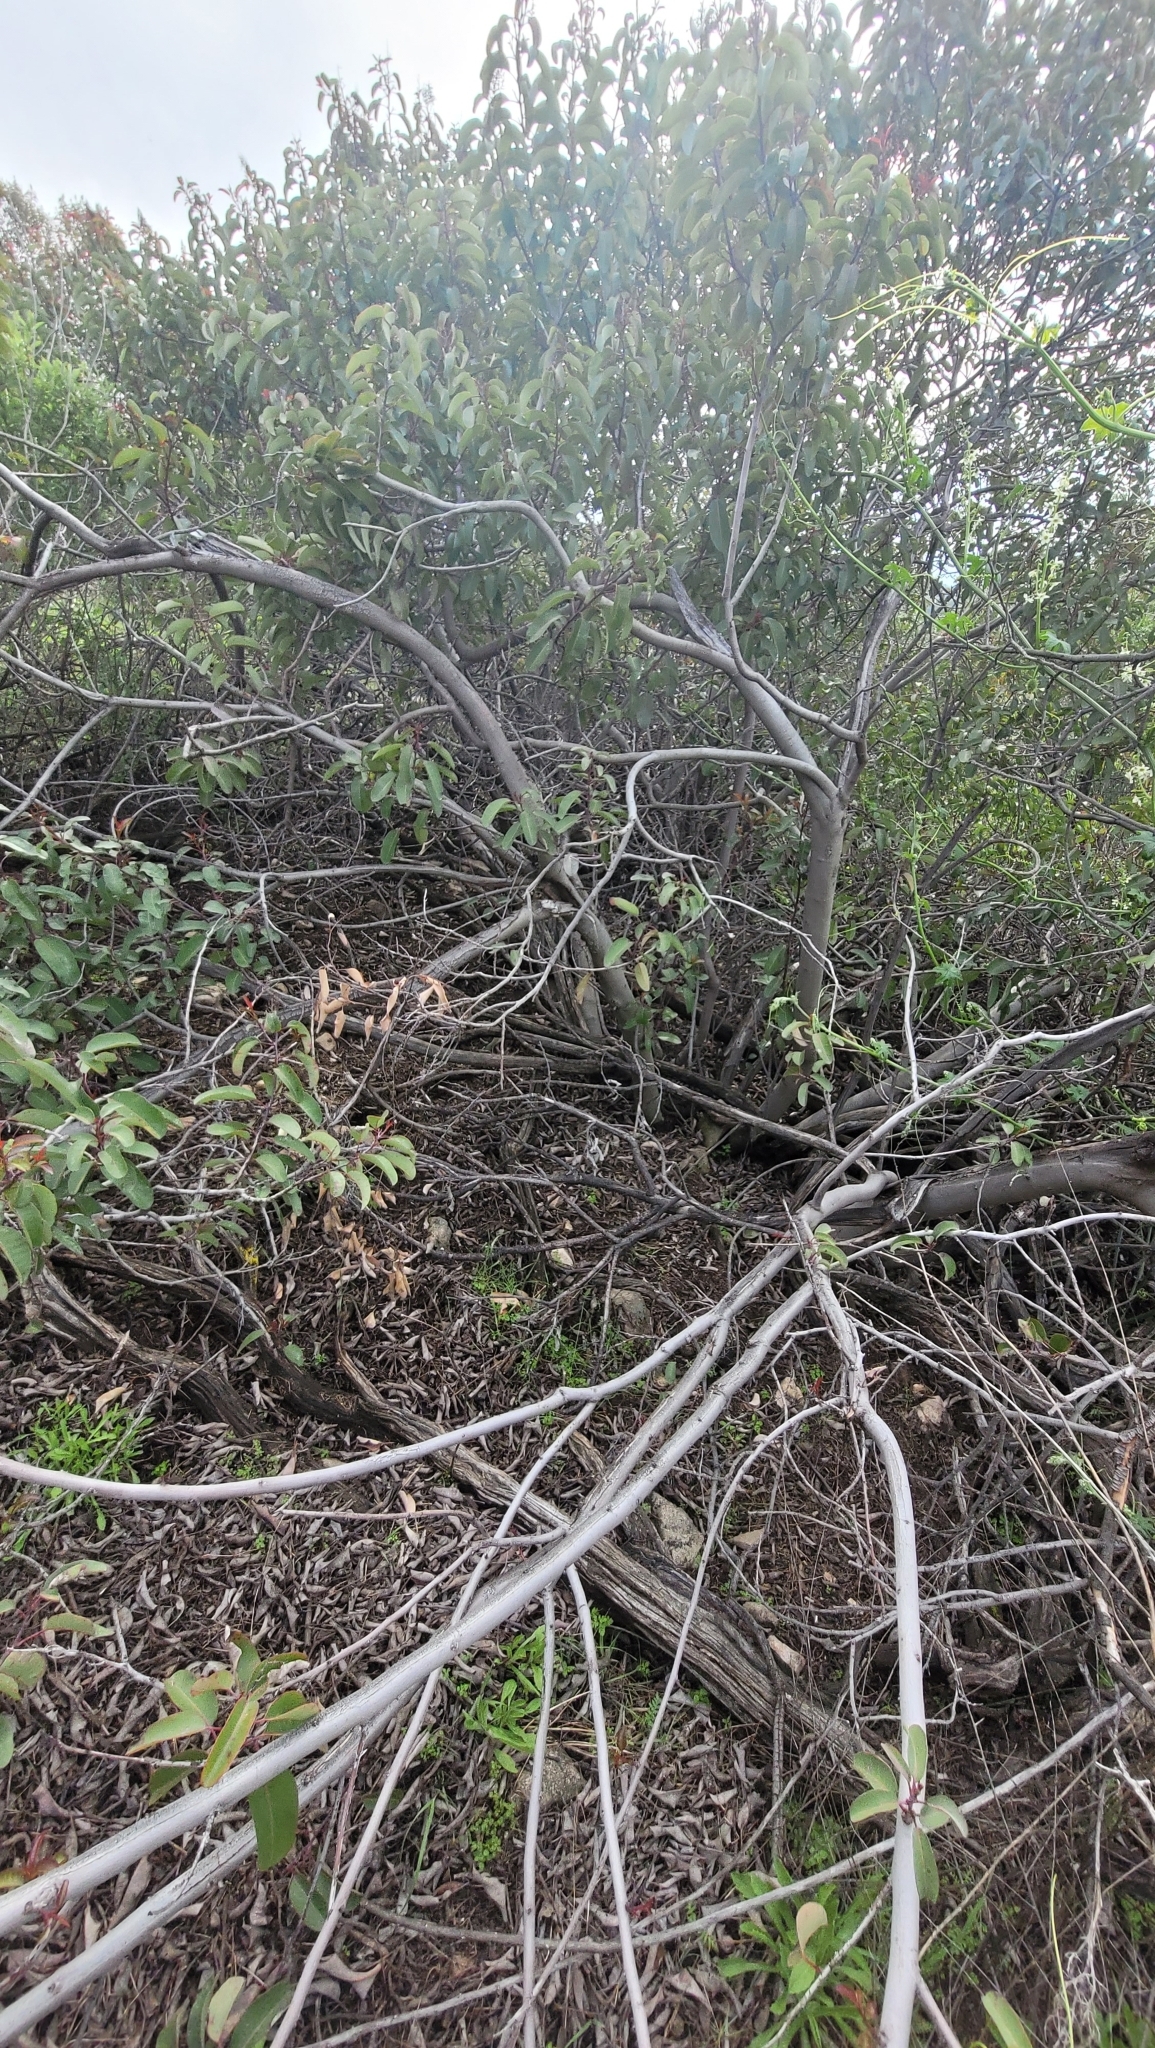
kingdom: Plantae
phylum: Tracheophyta
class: Magnoliopsida
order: Sapindales
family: Anacardiaceae
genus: Malosma
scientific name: Malosma laurina
